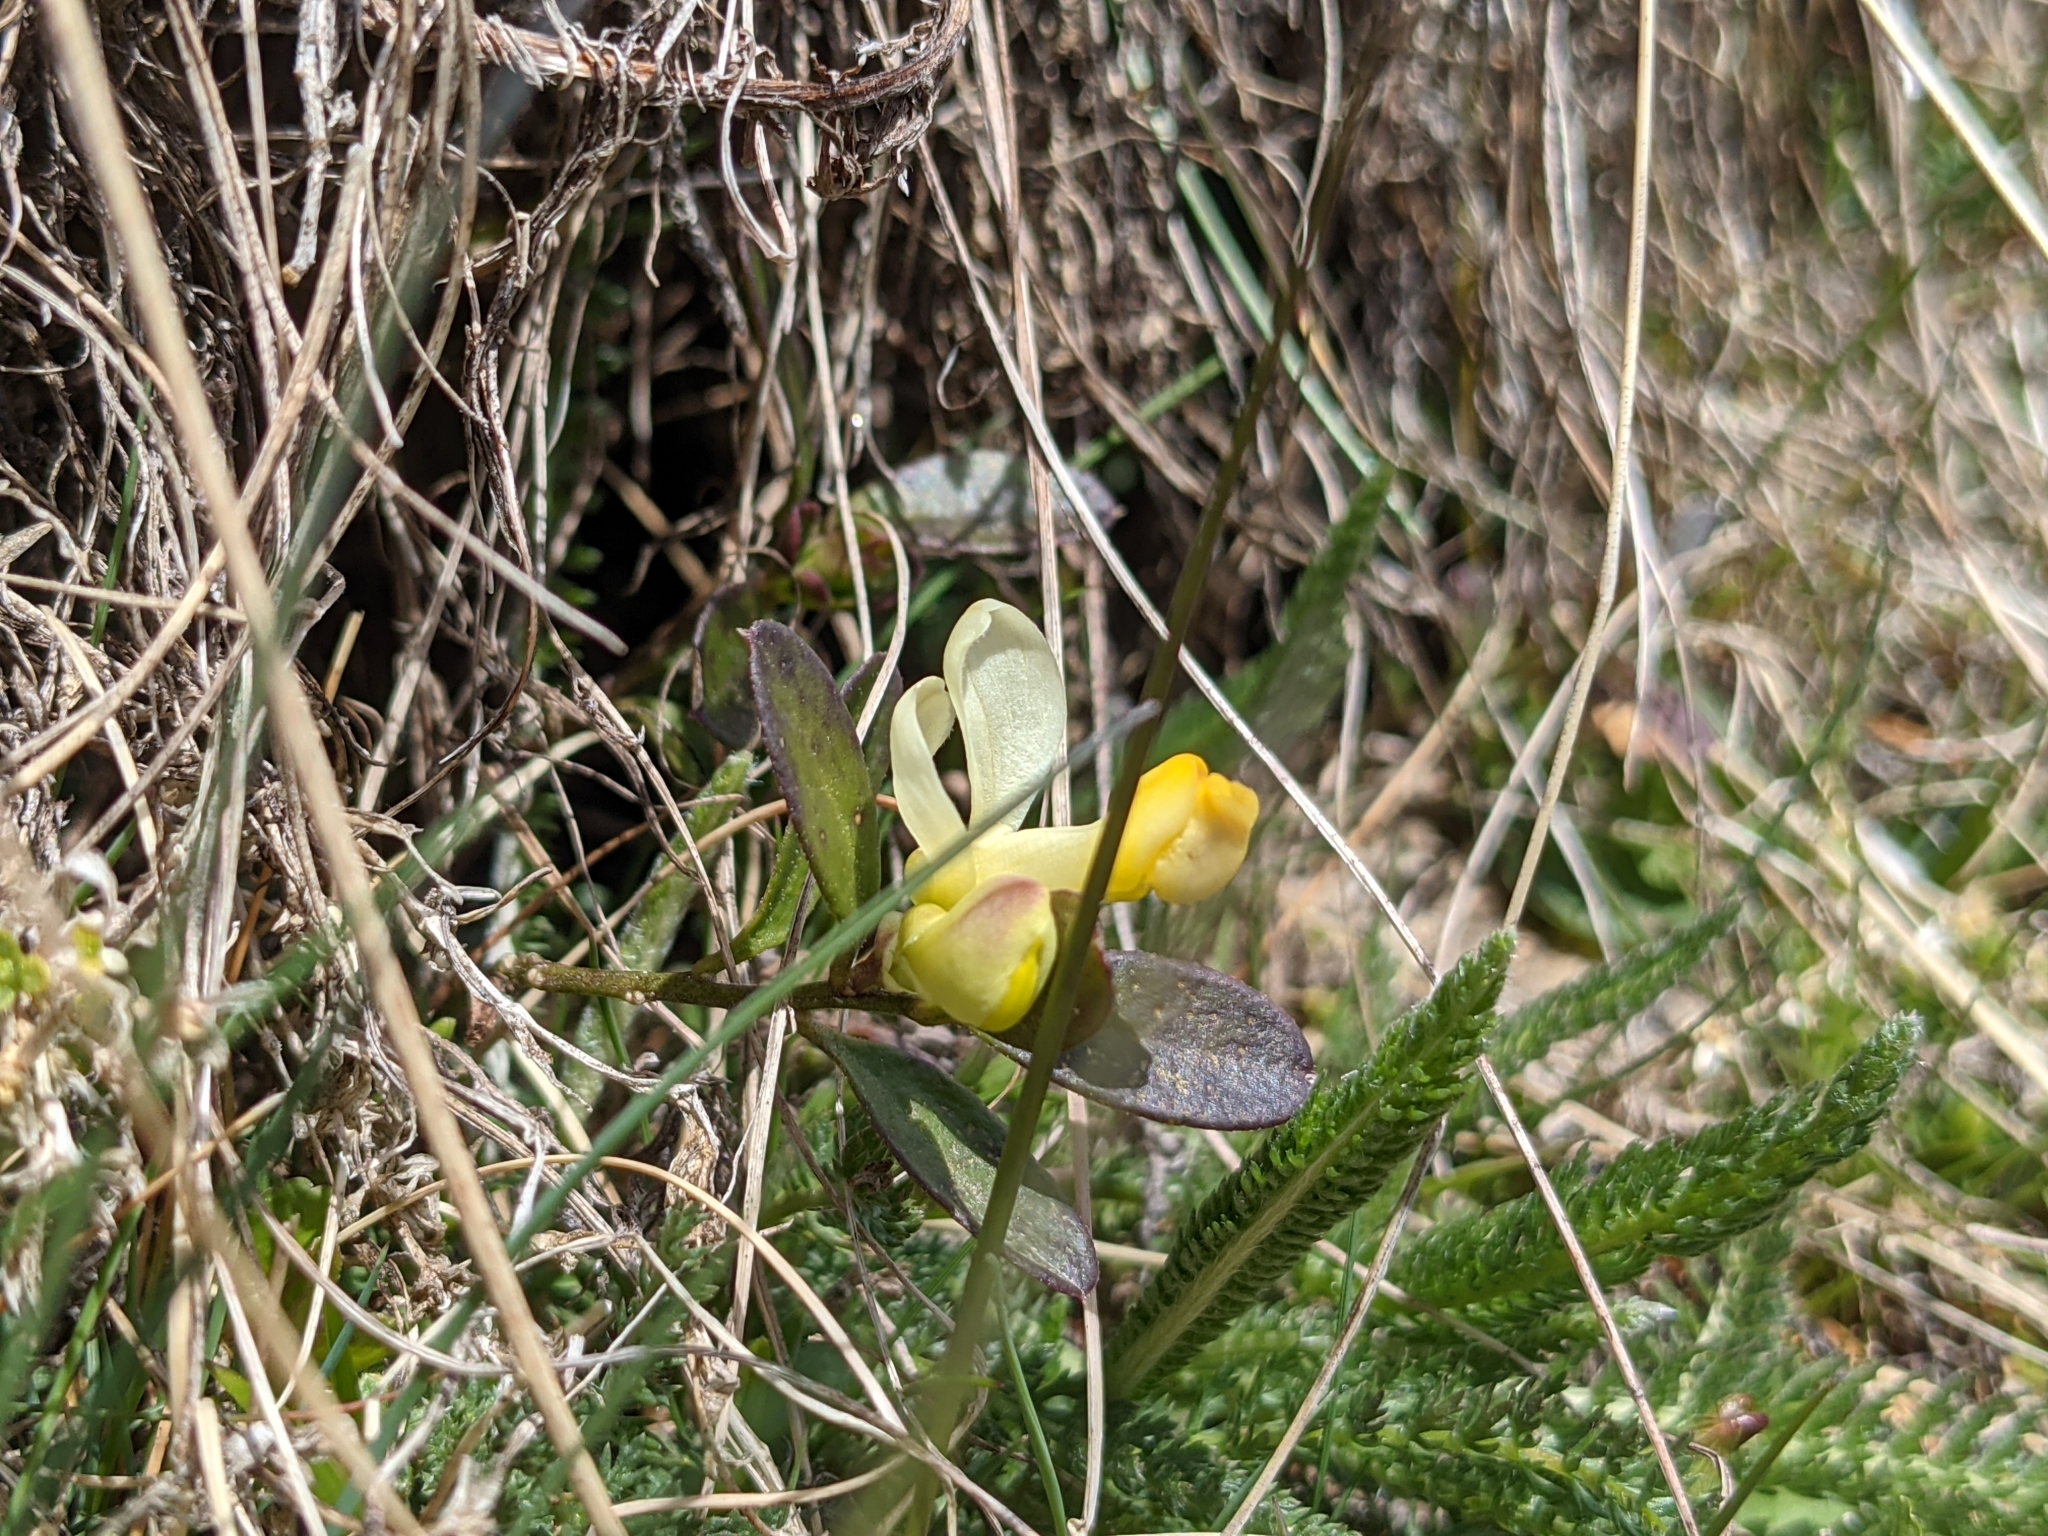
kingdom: Plantae
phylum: Tracheophyta
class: Magnoliopsida
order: Fabales
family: Polygalaceae
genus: Polygaloides
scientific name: Polygaloides chamaebuxus
